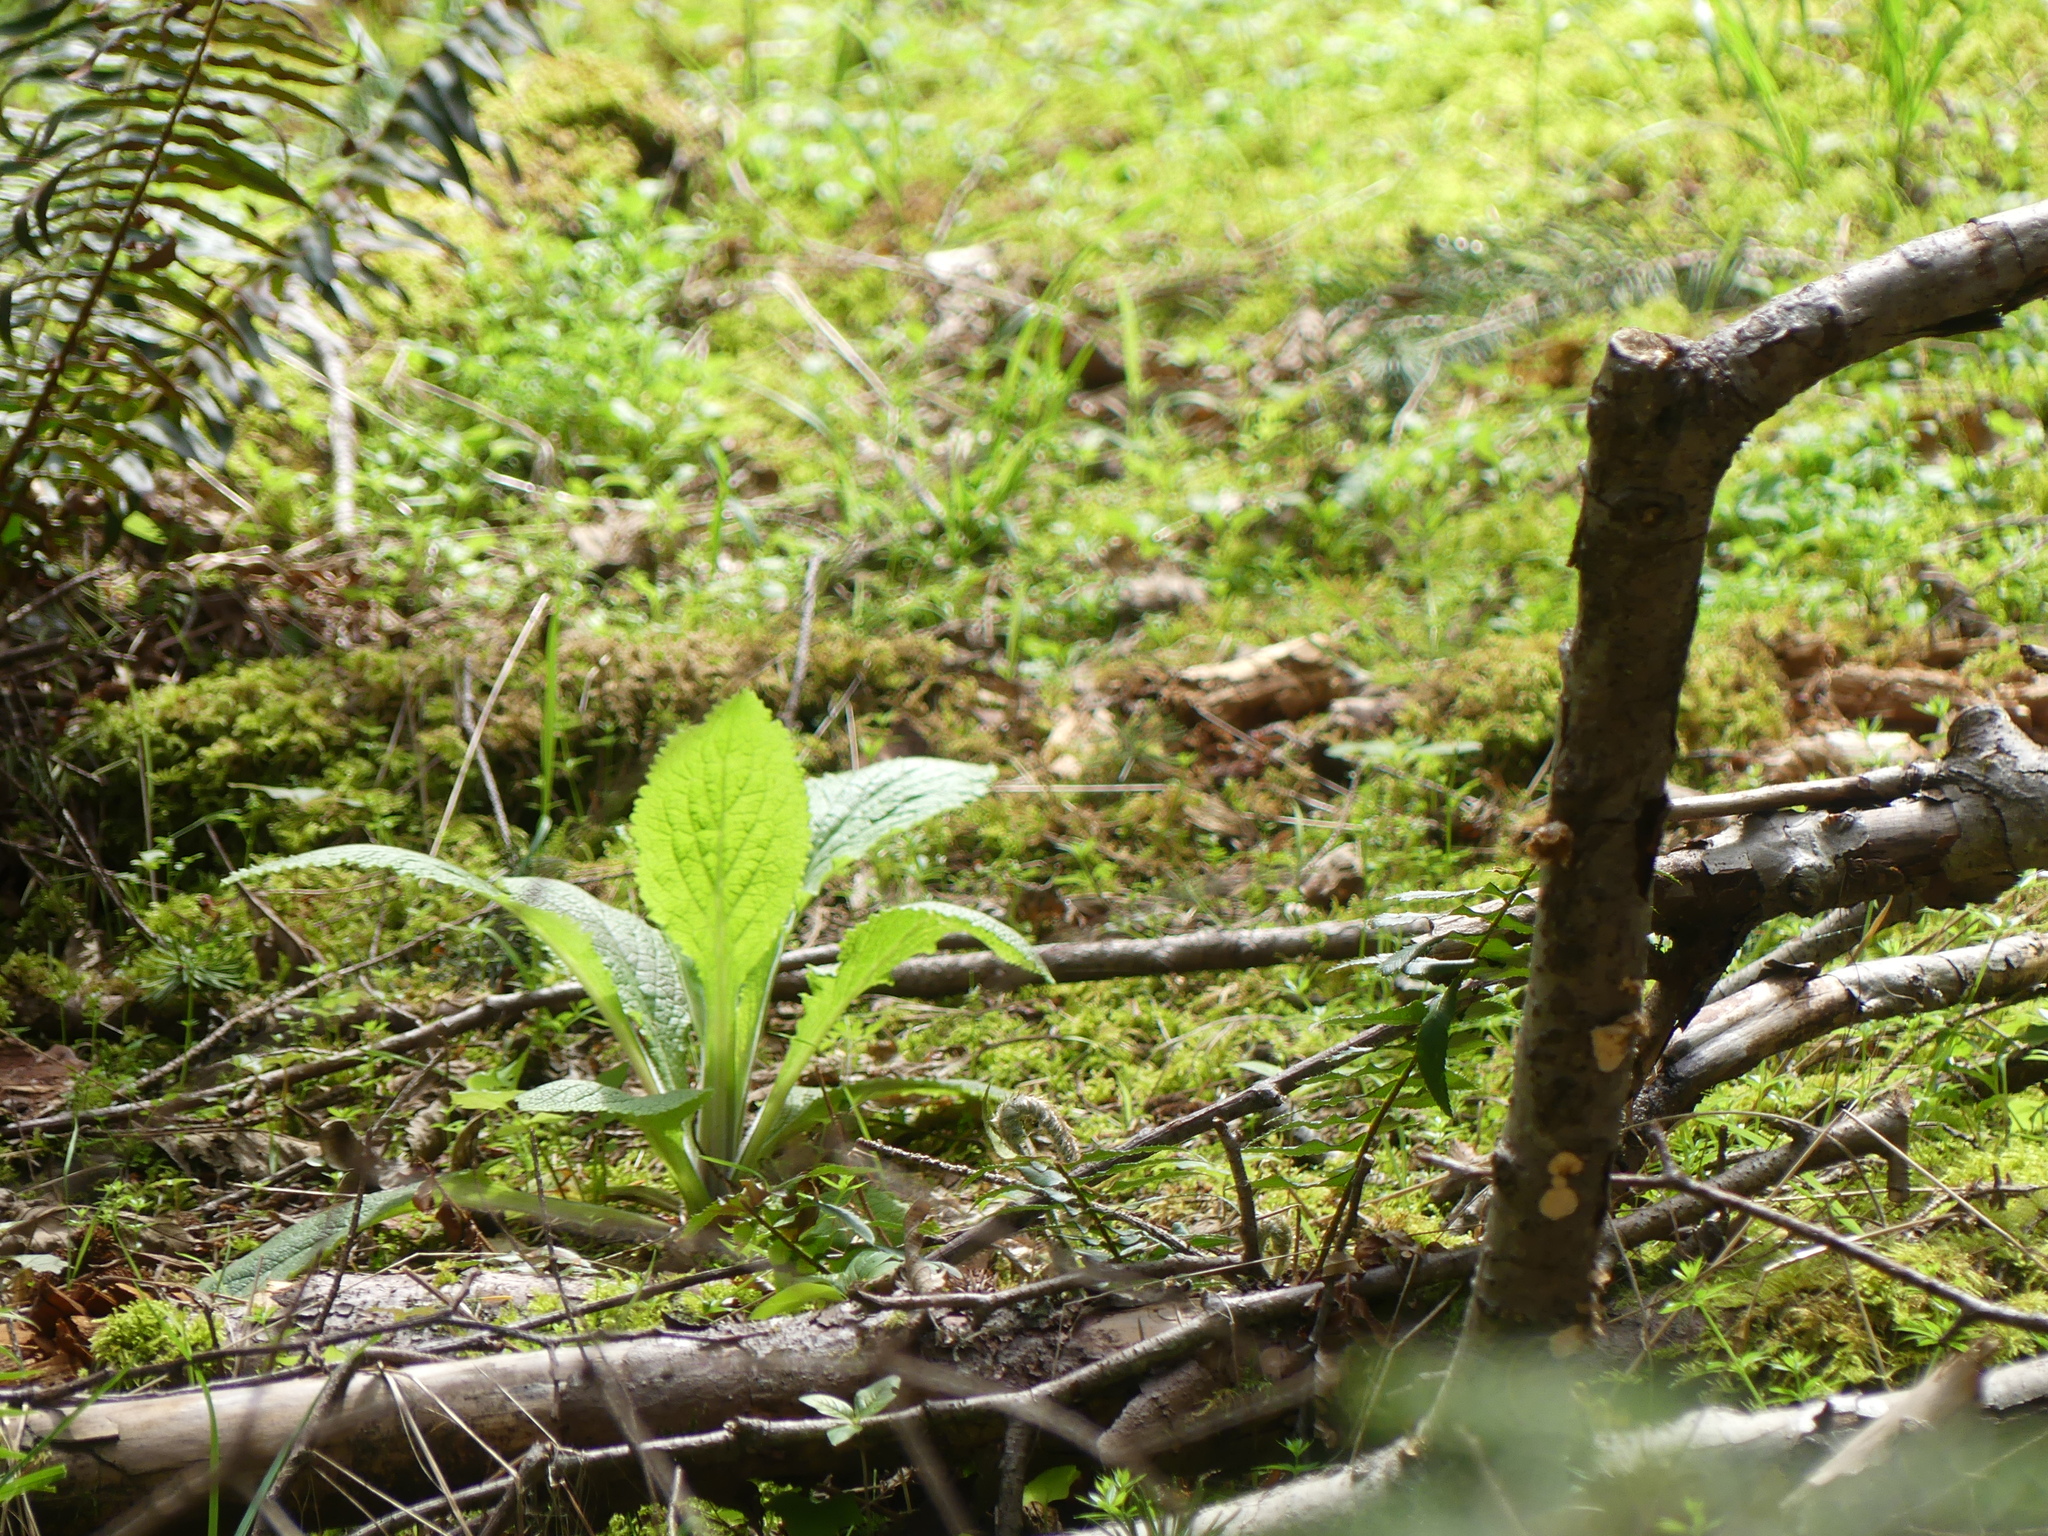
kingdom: Plantae
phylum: Tracheophyta
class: Magnoliopsida
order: Lamiales
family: Plantaginaceae
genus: Digitalis
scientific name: Digitalis purpurea
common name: Foxglove
